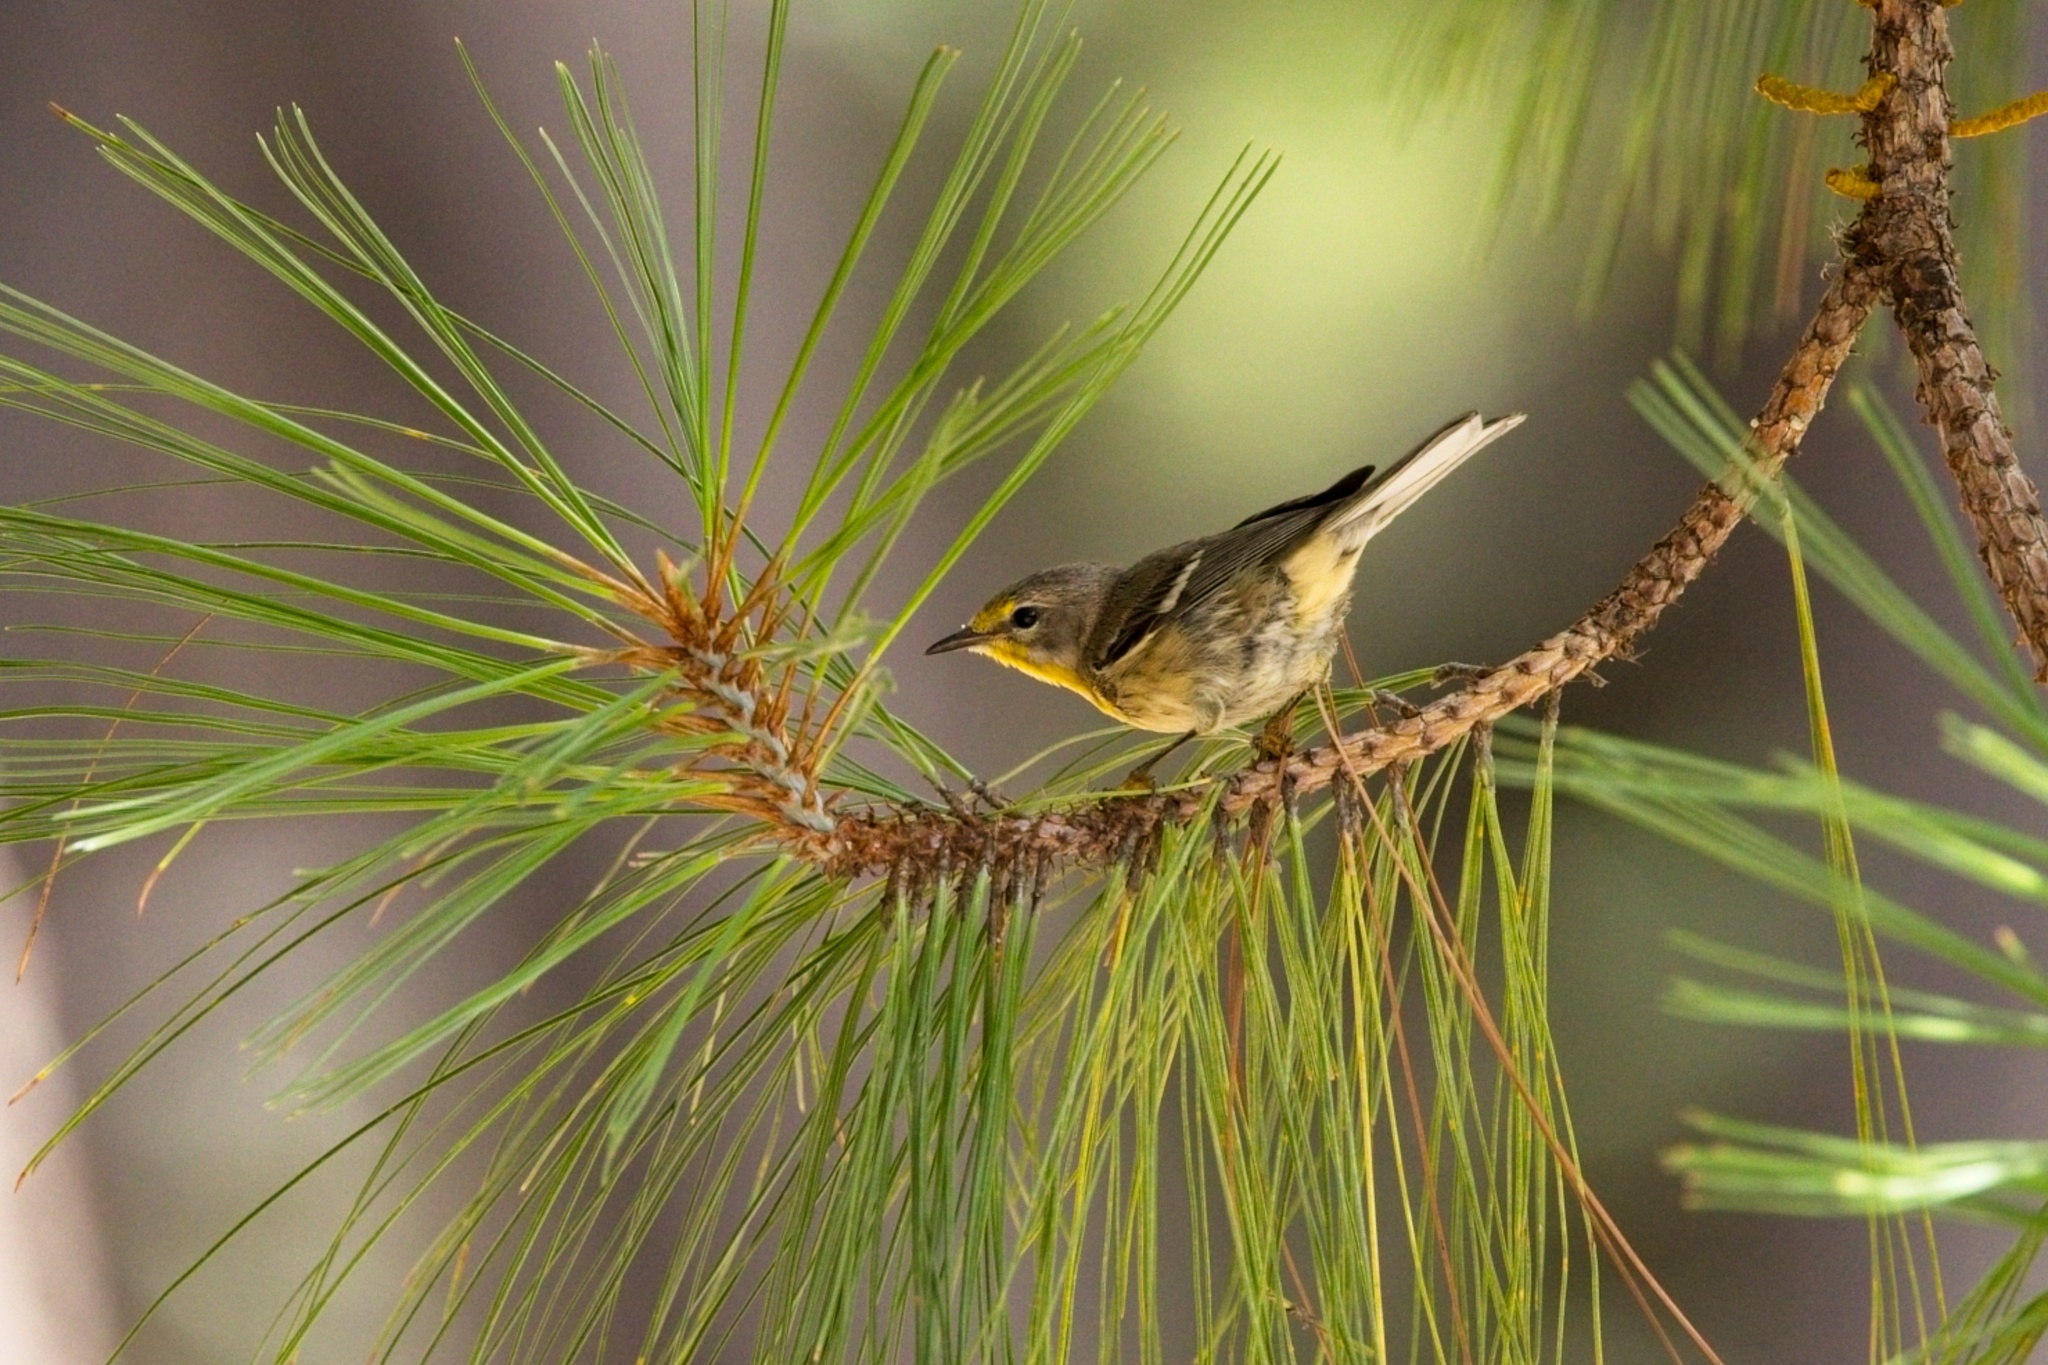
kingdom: Animalia
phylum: Chordata
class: Aves
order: Passeriformes
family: Parulidae
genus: Setophaga
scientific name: Setophaga graciae
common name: Grace's warbler
